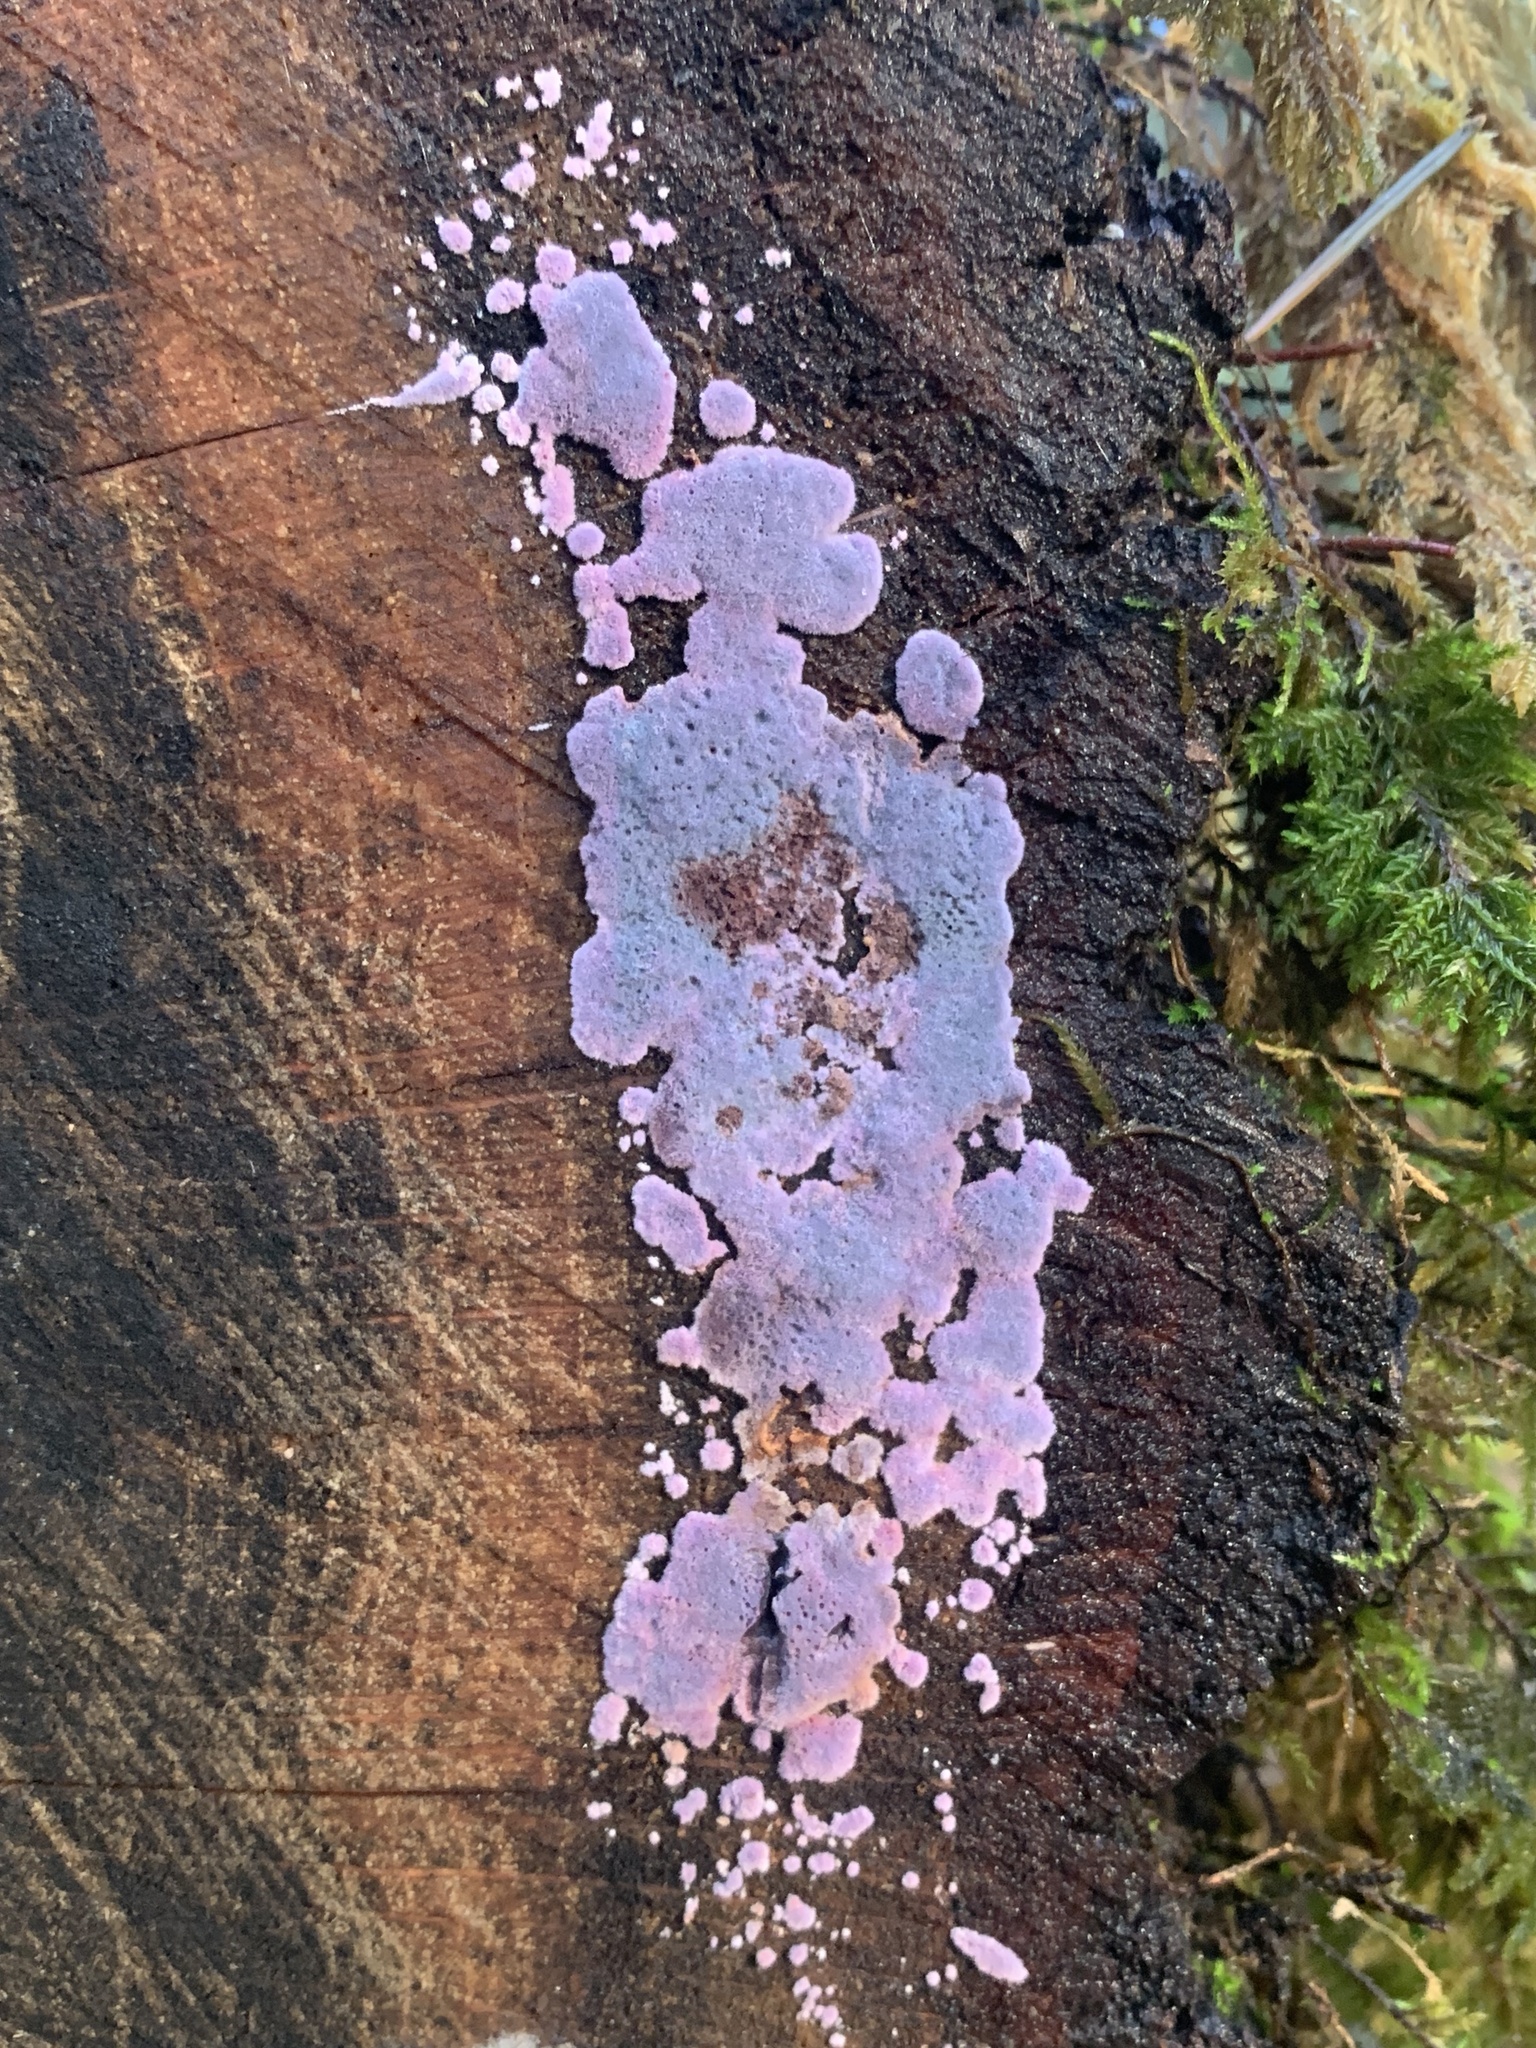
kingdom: Fungi
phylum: Basidiomycota
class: Agaricomycetes
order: Corticiales
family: Punctulariaceae
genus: Punctularia
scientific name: Punctularia atropurpurascens
